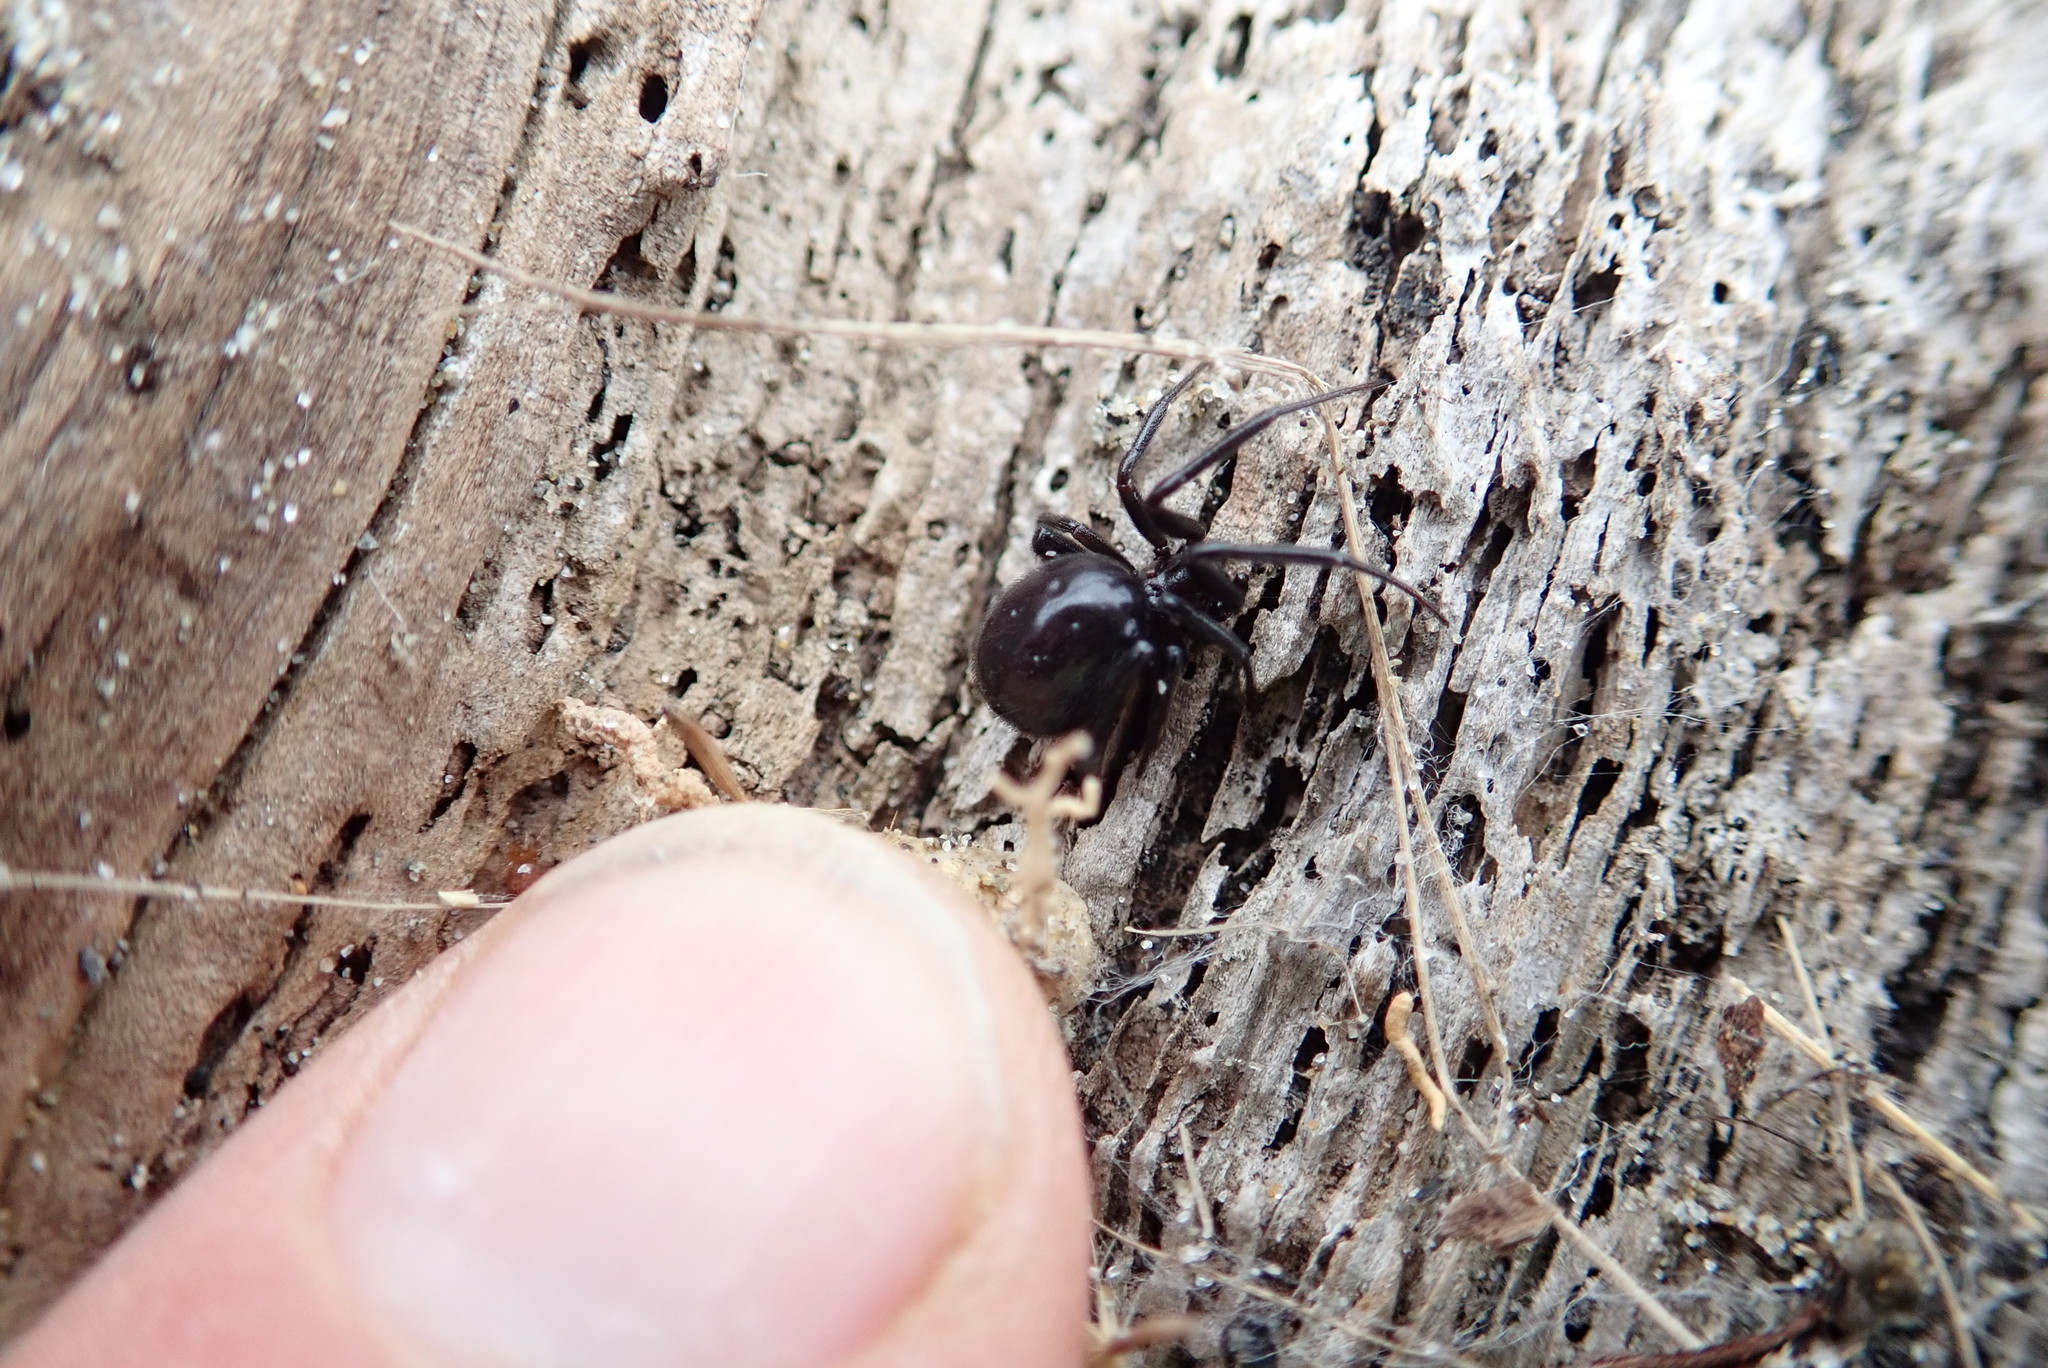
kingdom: Animalia
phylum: Arthropoda
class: Arachnida
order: Araneae
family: Theridiidae
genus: Steatoda
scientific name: Steatoda capensis
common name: Cobweb weaver
